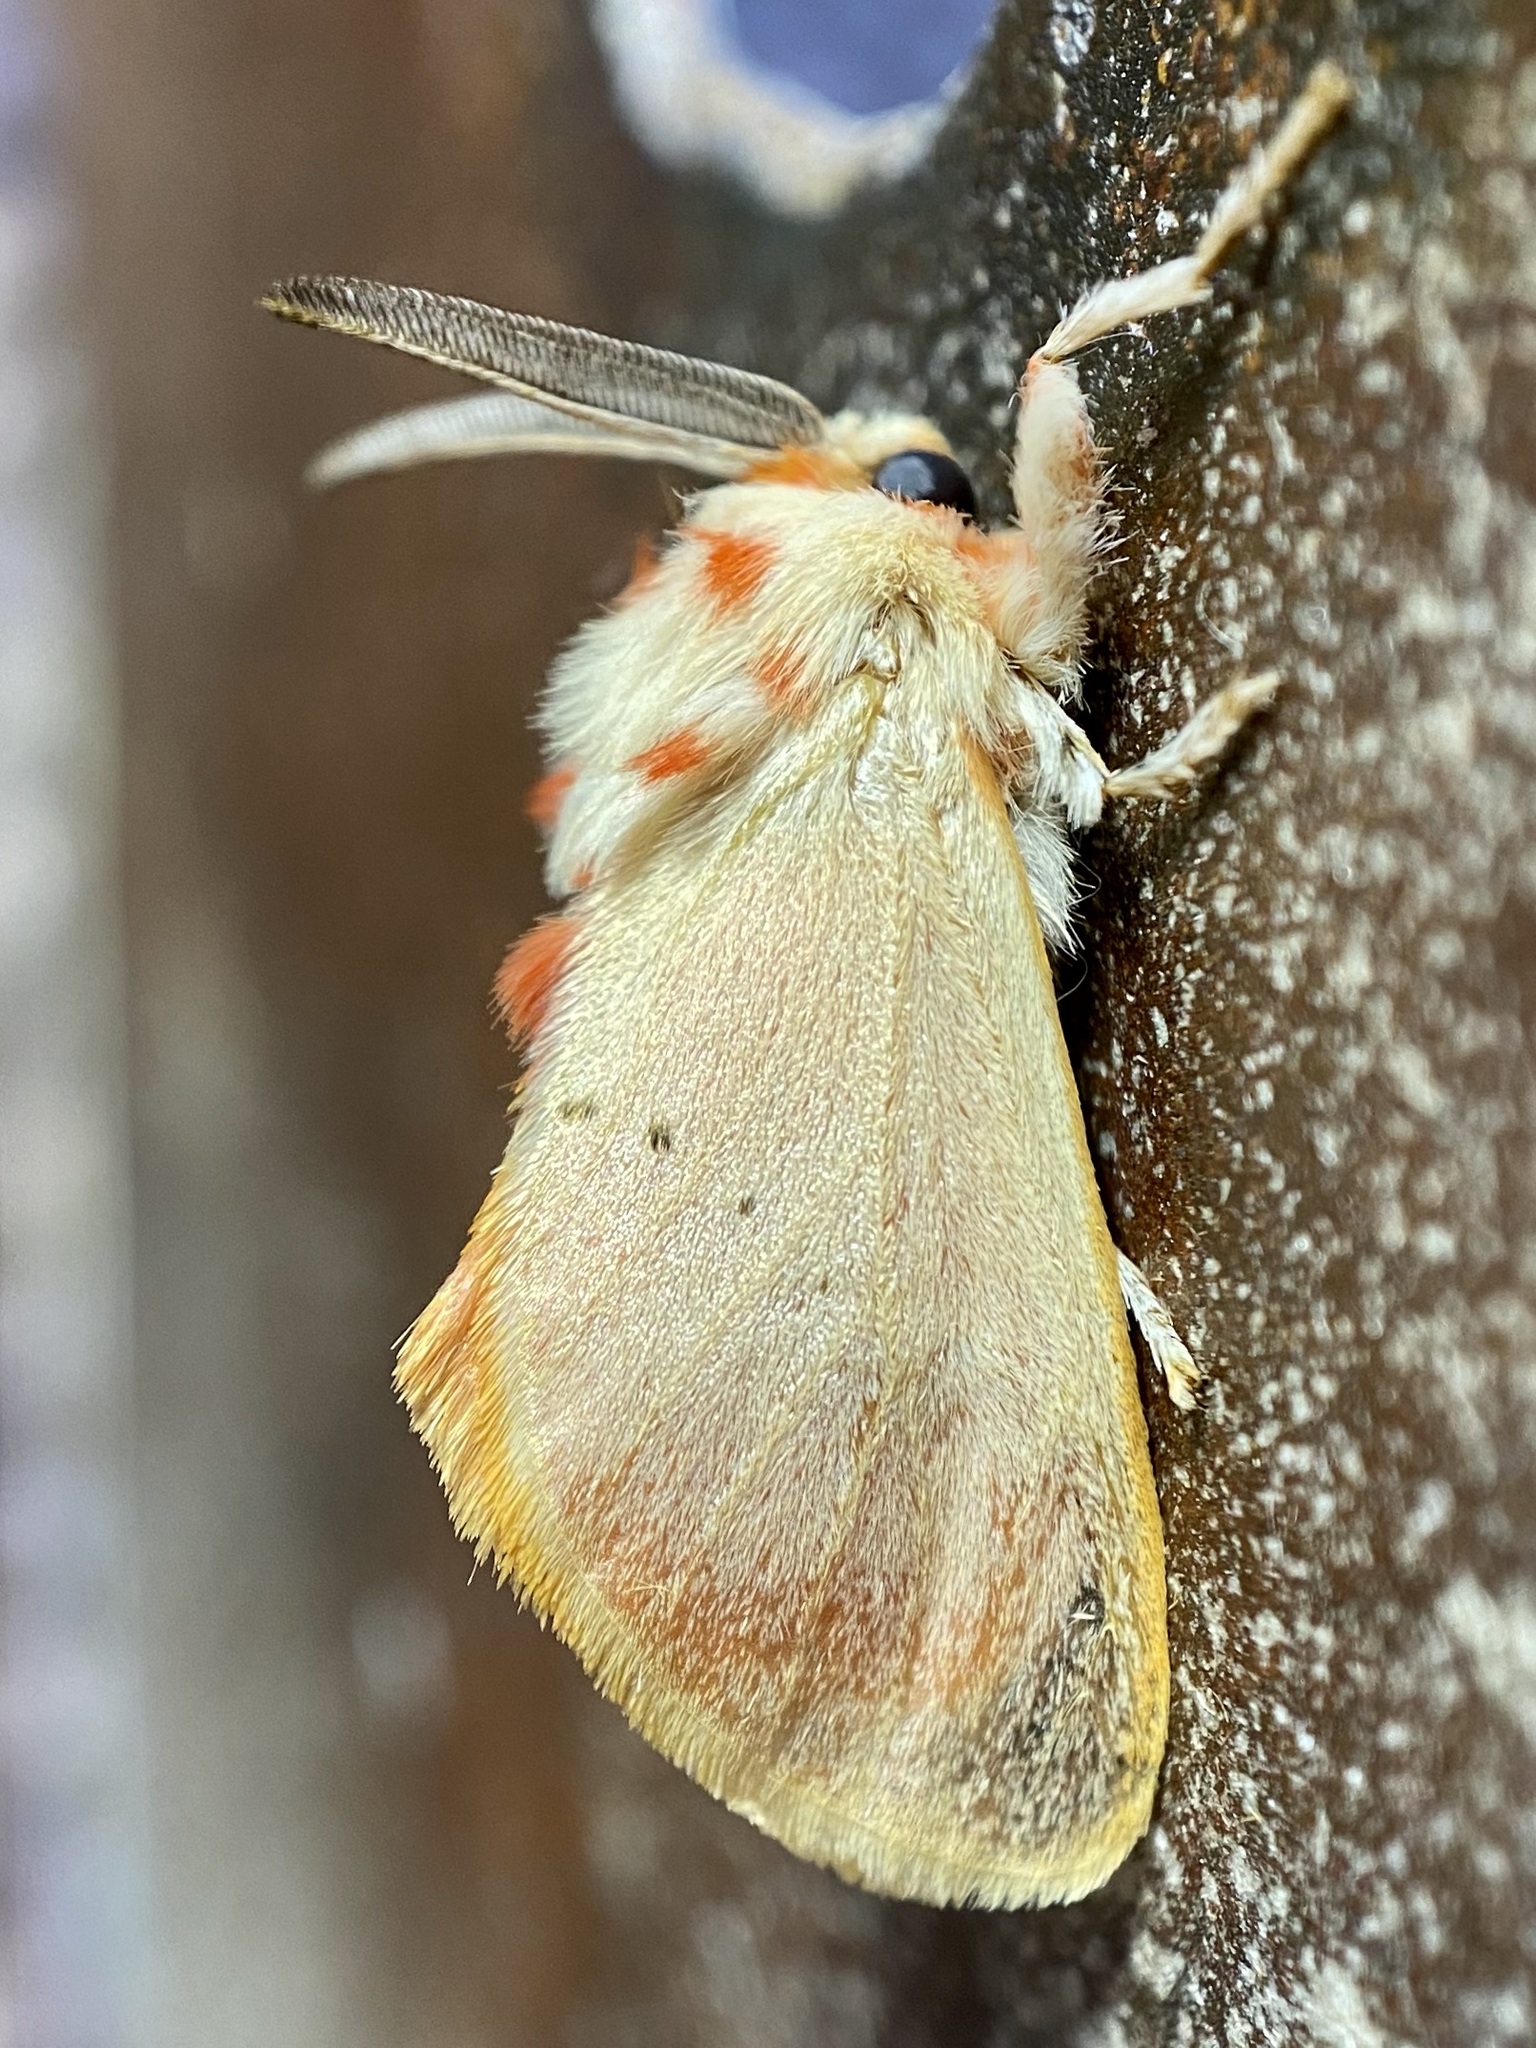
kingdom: Animalia
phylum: Arthropoda
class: Insecta
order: Lepidoptera
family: Megalopygidae
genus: Trosia
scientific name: Trosia obsolescens
